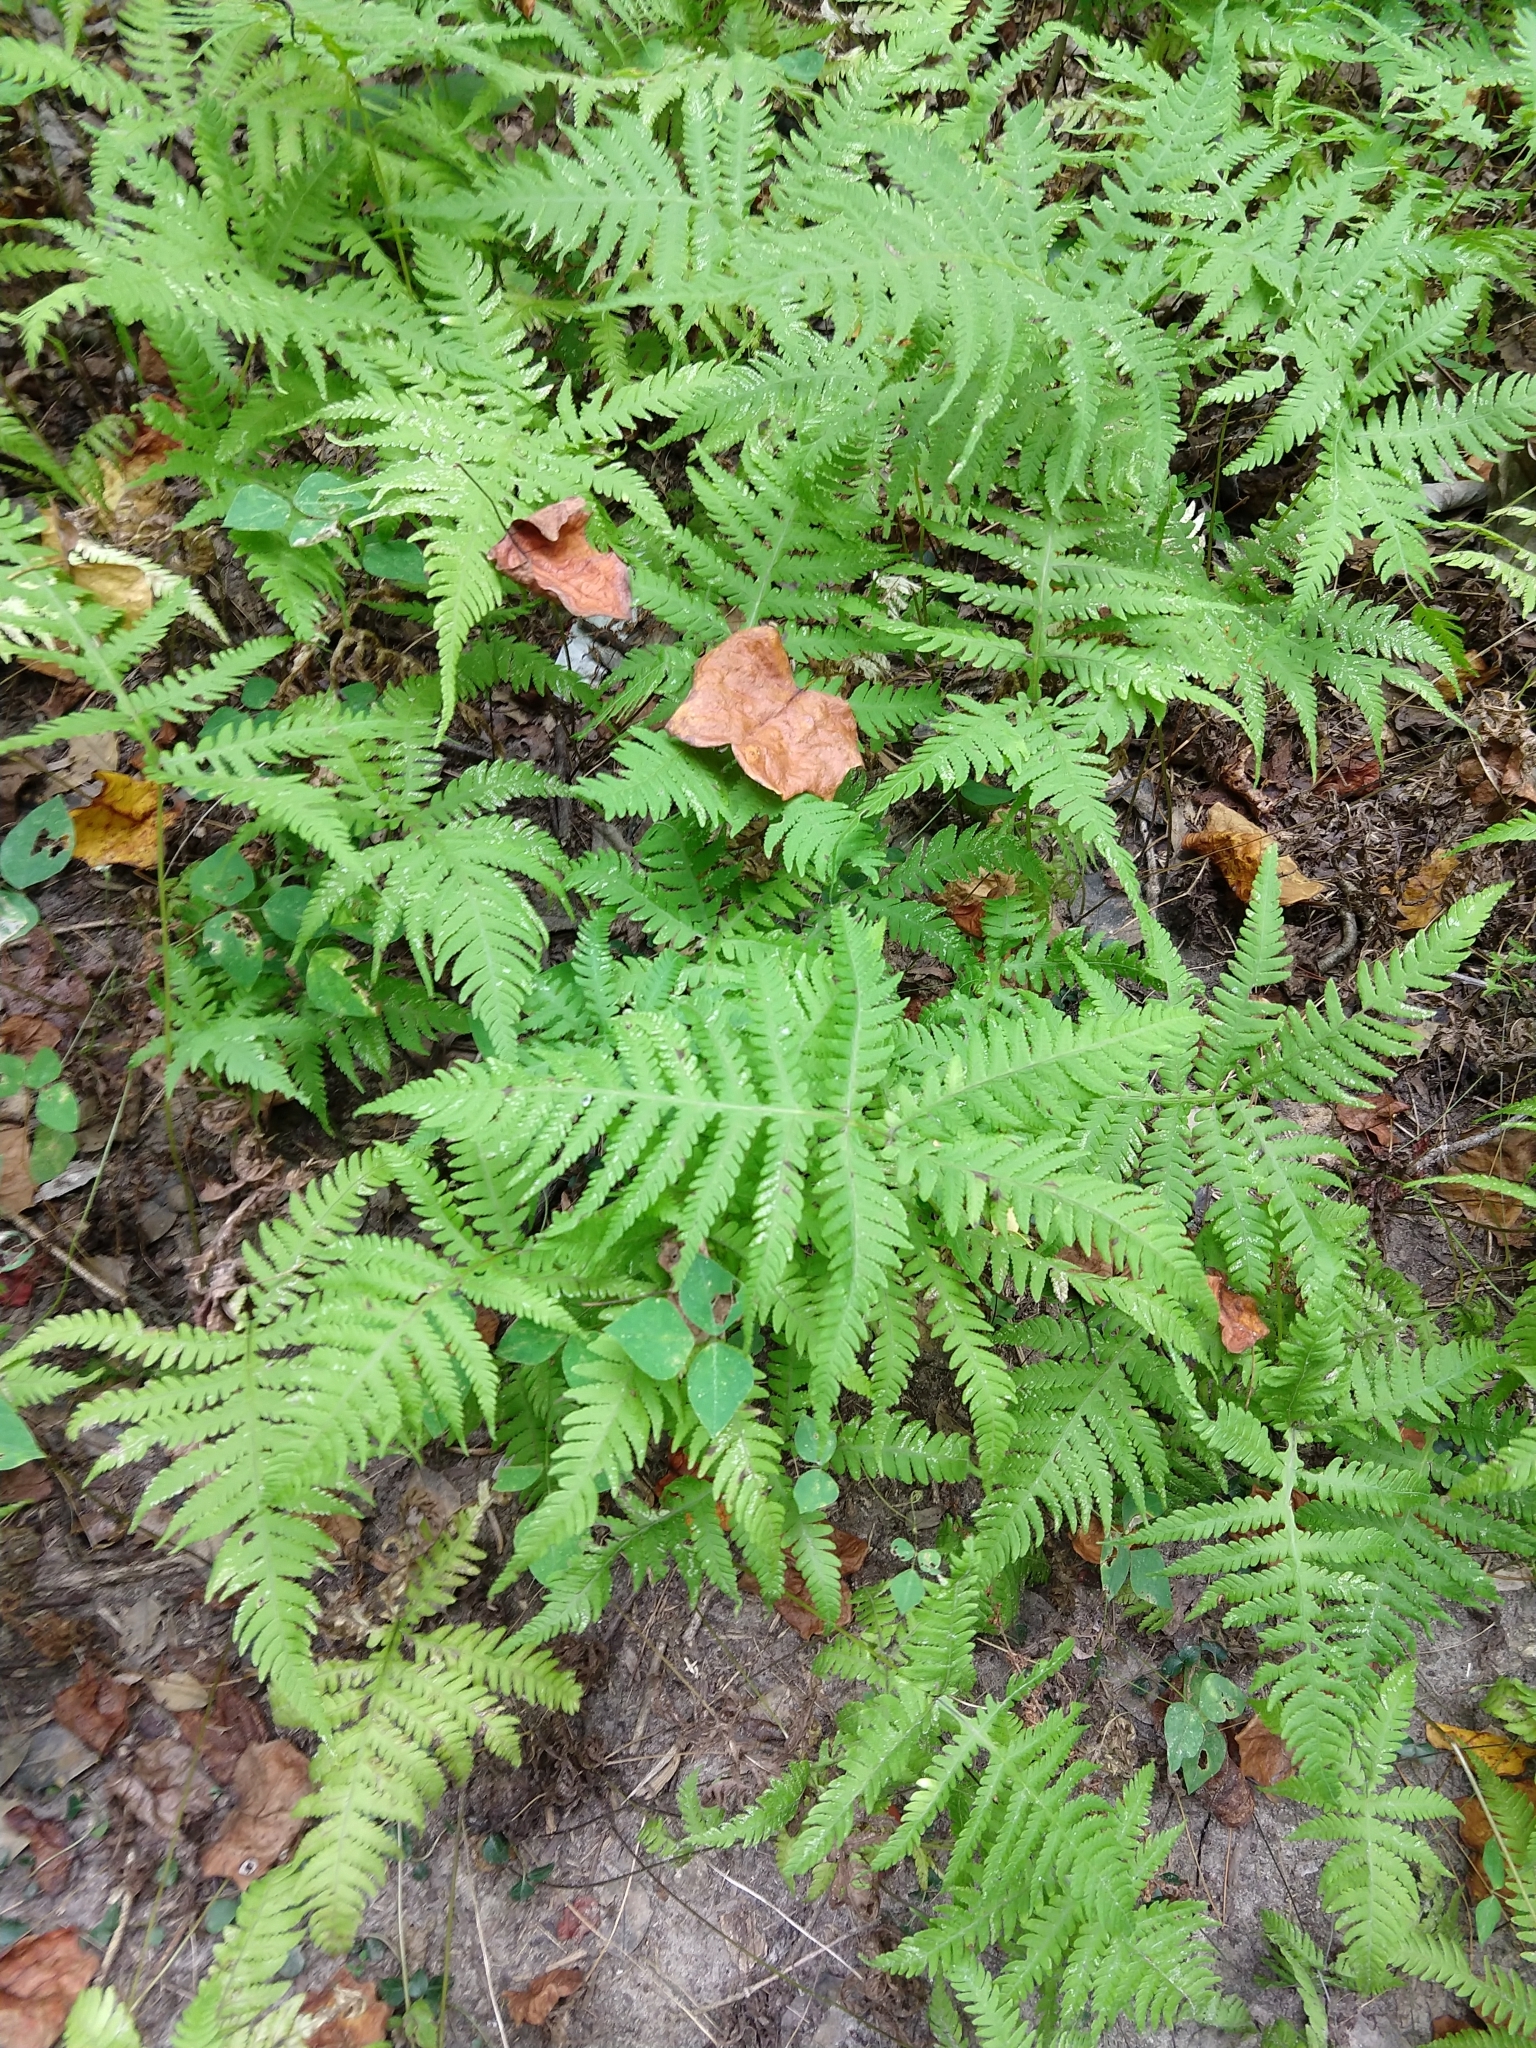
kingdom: Plantae
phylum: Tracheophyta
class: Polypodiopsida
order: Polypodiales
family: Thelypteridaceae
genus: Phegopteris
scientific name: Phegopteris hexagonoptera
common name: Broad beech fern
